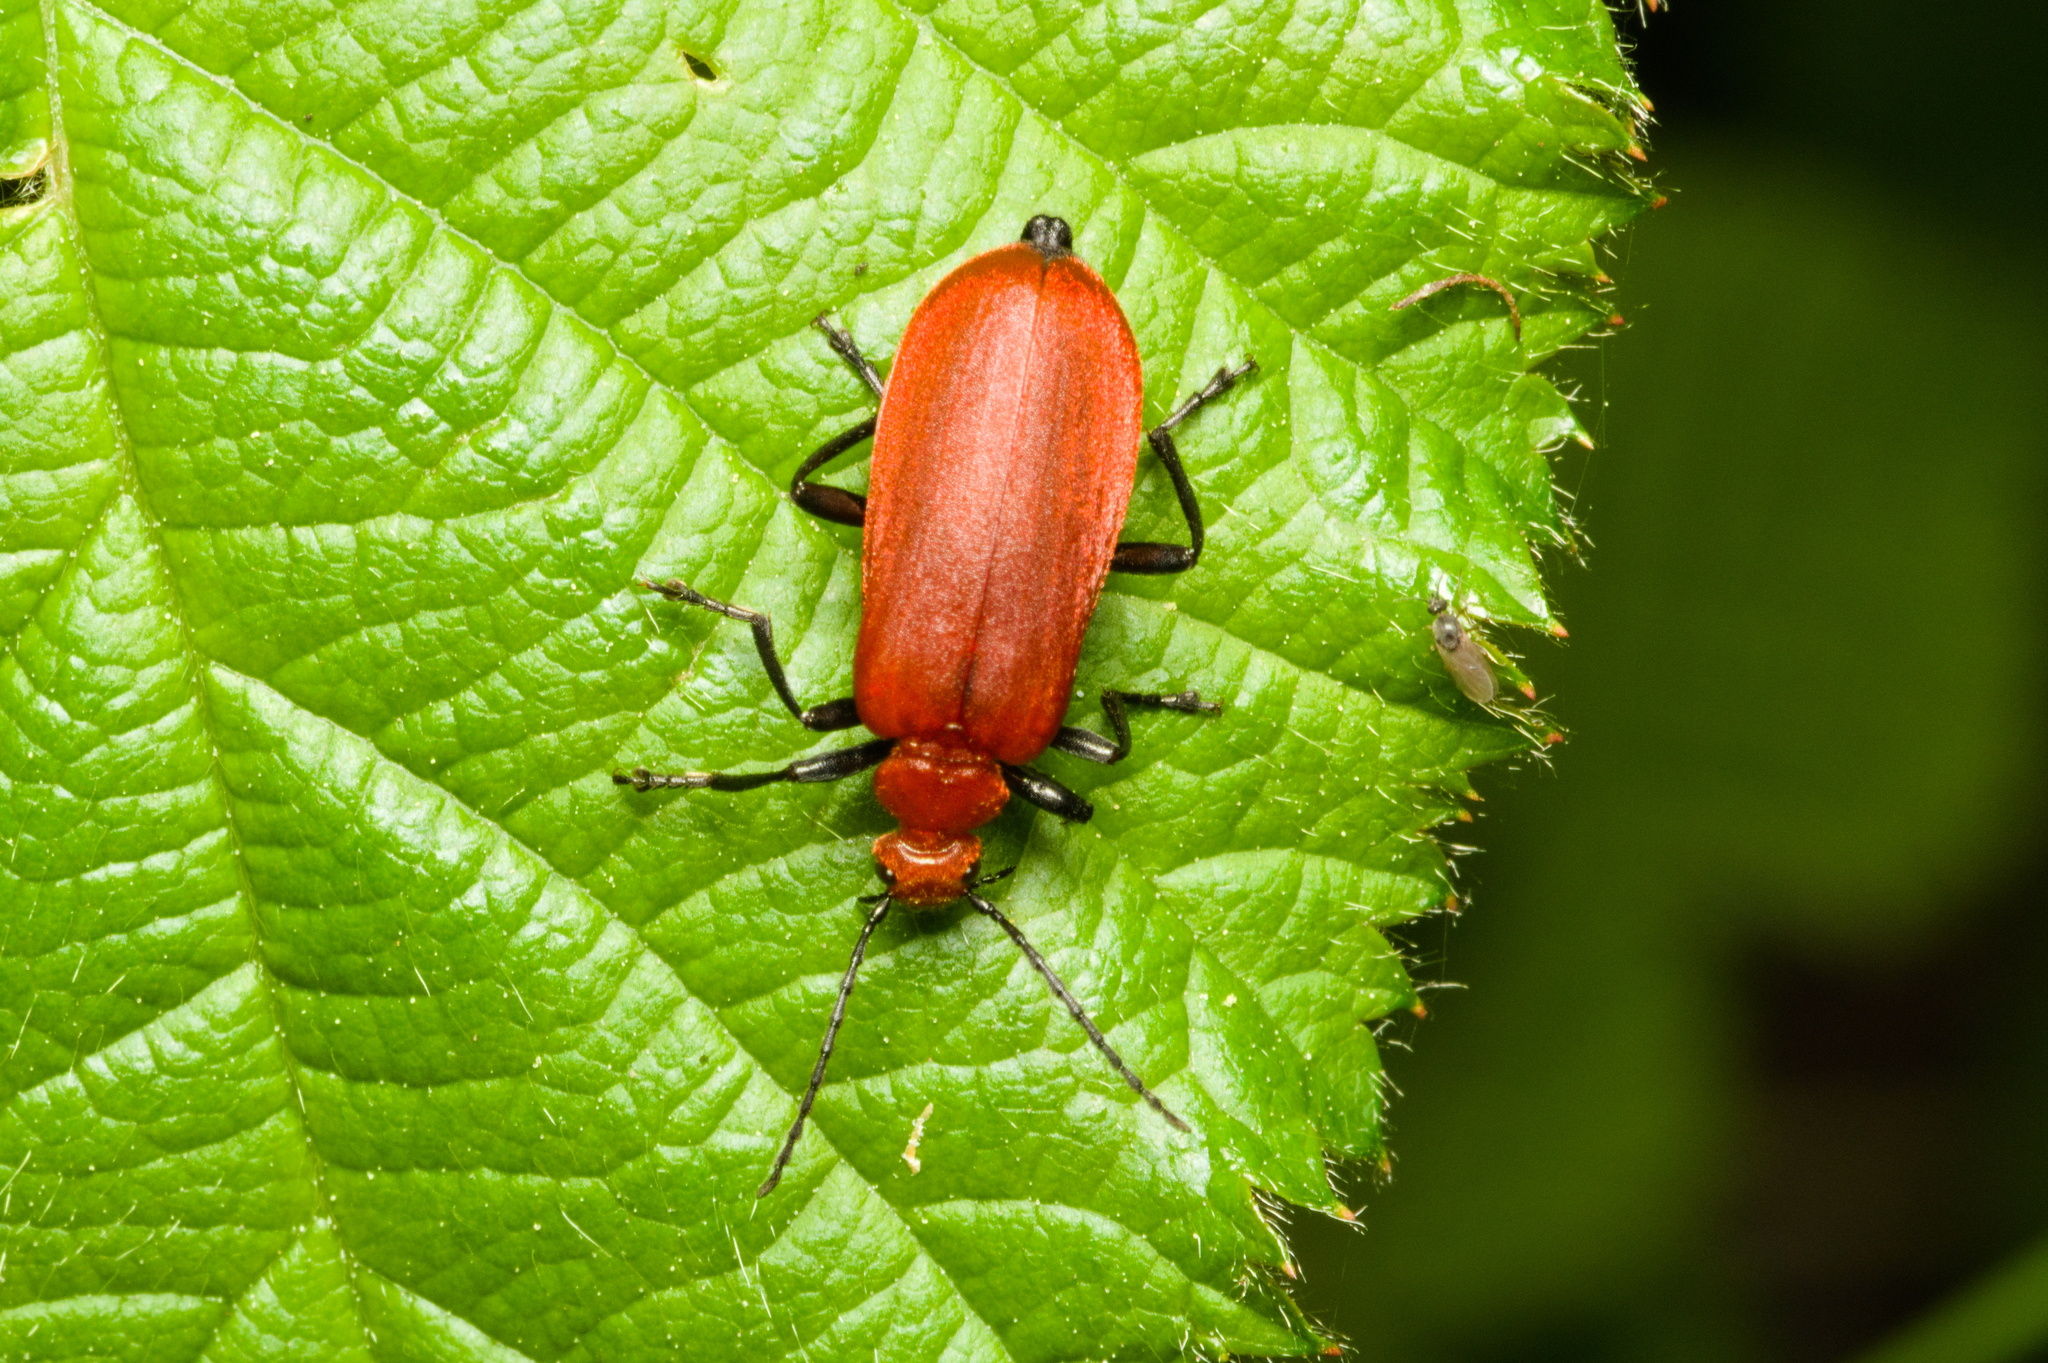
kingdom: Animalia
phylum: Arthropoda
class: Insecta
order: Coleoptera
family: Pyrochroidae
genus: Pyrochroa
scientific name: Pyrochroa serraticornis
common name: Red-headed cardinal beetle
